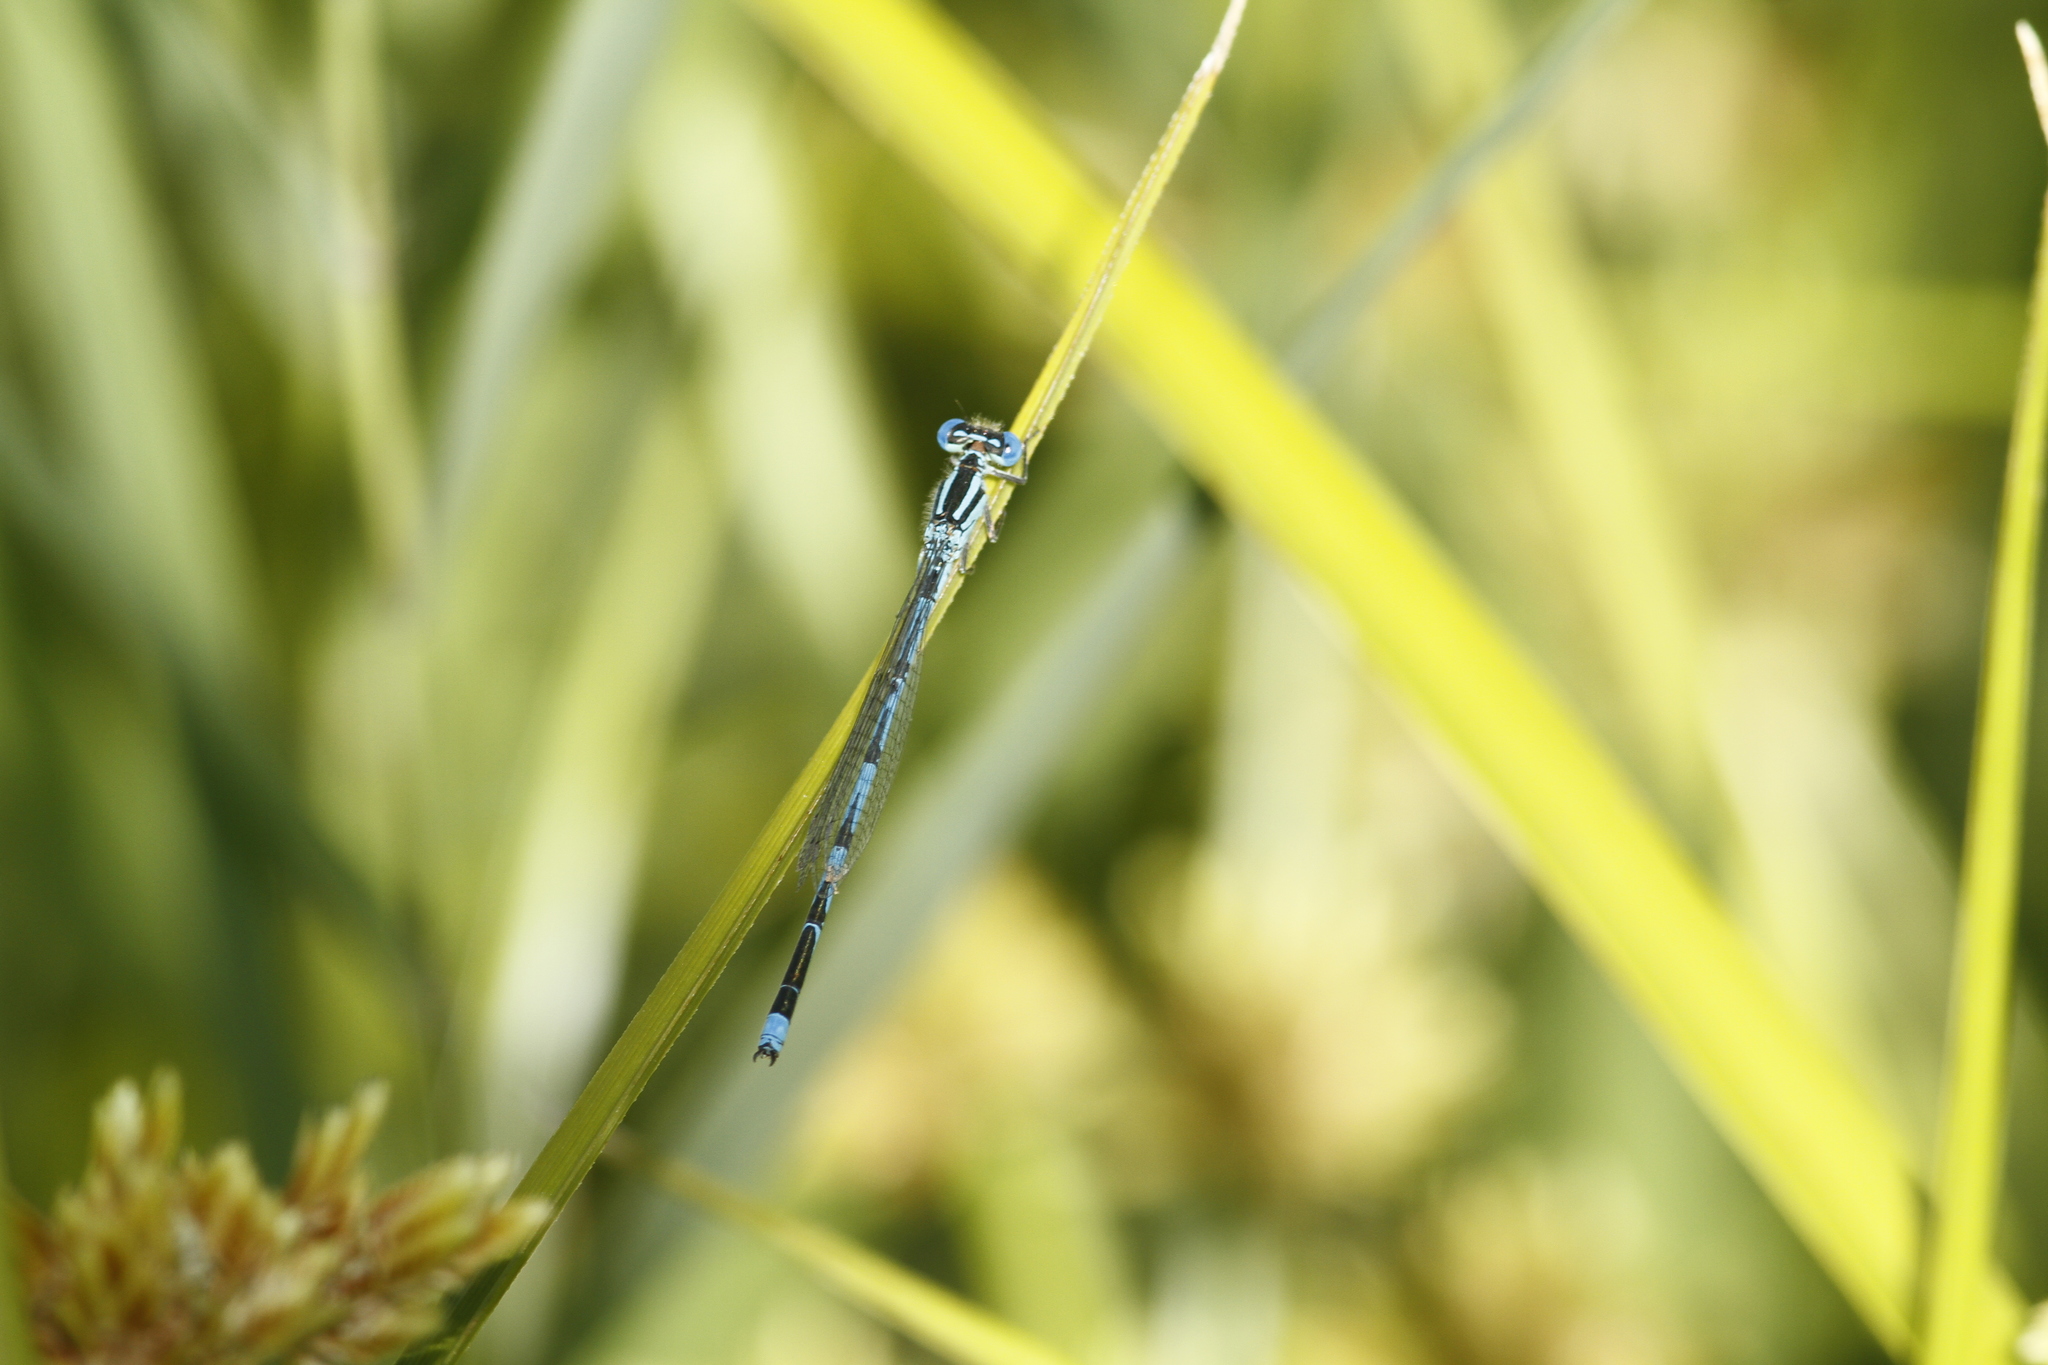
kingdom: Animalia
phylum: Arthropoda
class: Insecta
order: Odonata
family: Coenagrionidae
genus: Erythromma
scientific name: Erythromma lindenii
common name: Blue-eye
